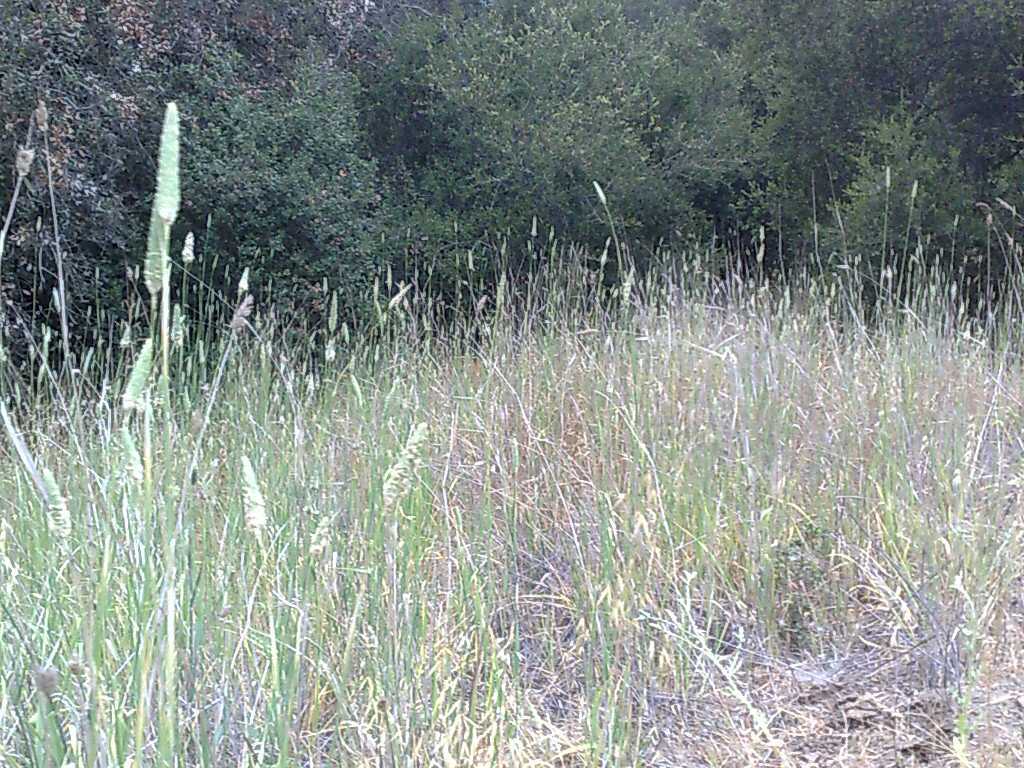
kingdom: Plantae
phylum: Tracheophyta
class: Liliopsida
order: Poales
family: Poaceae
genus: Phalaris
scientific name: Phalaris aquatica
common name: Bulbous canary-grass
